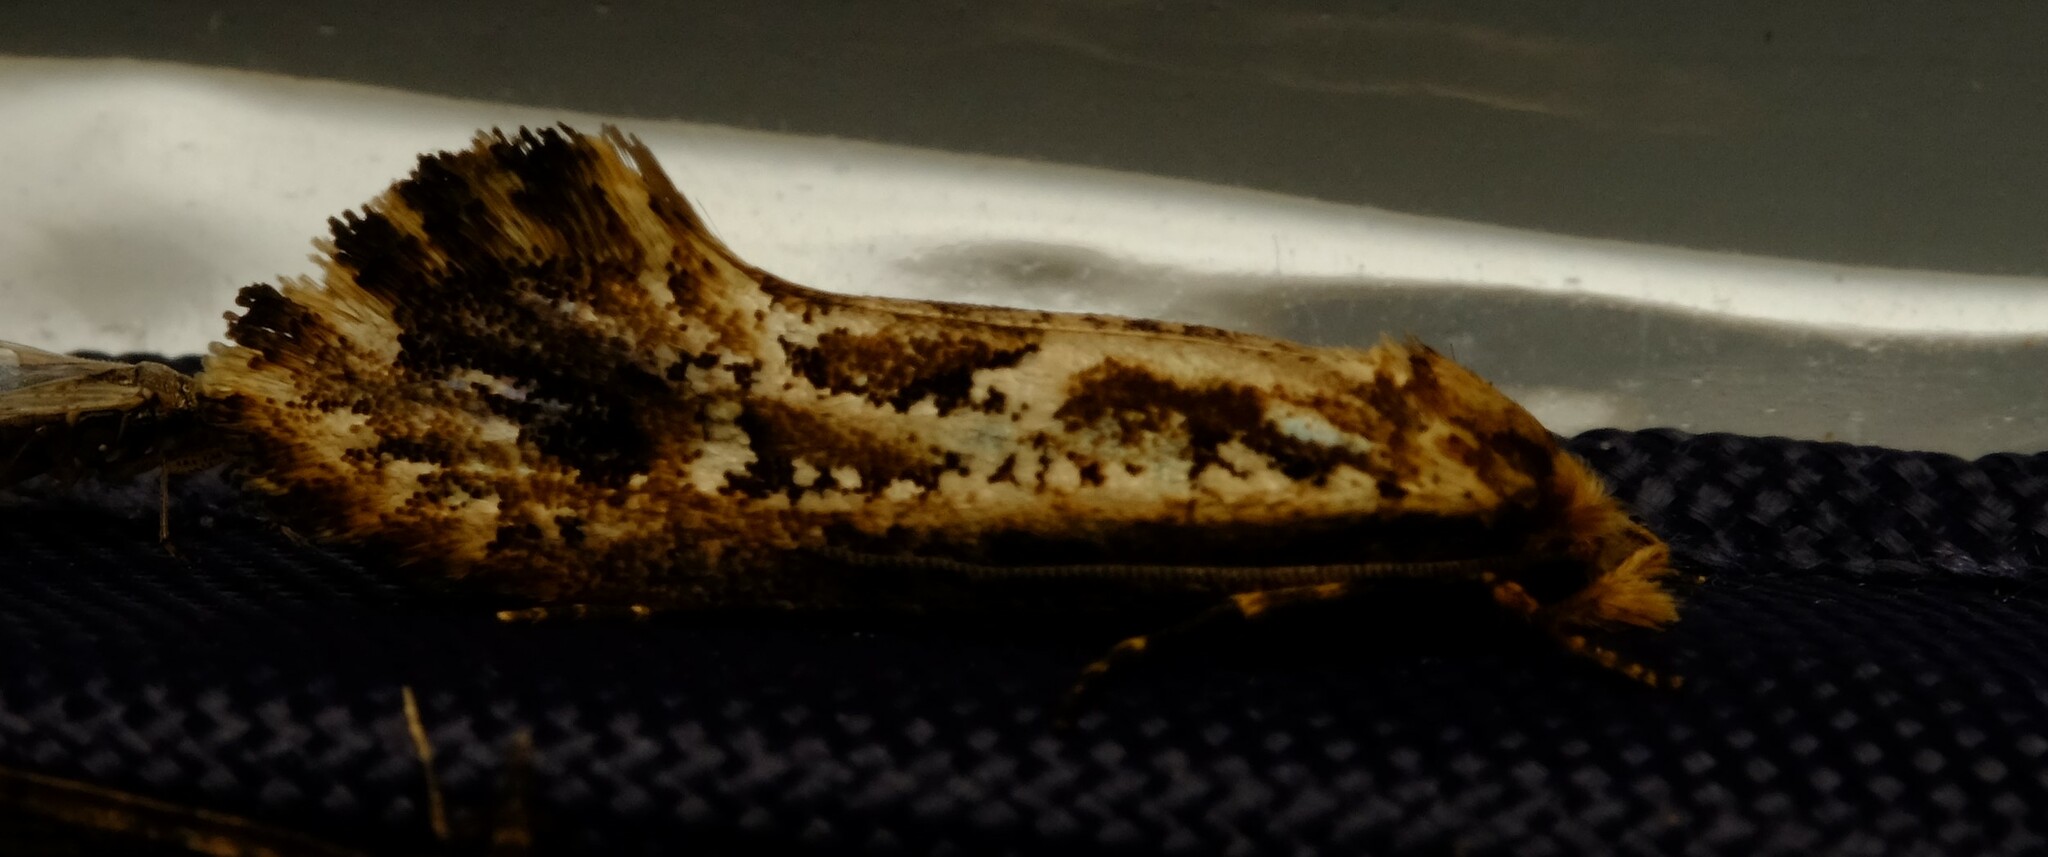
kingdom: Animalia
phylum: Arthropoda
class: Insecta
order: Lepidoptera
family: Tineidae
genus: Moerarchis
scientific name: Moerarchis inconcisella
